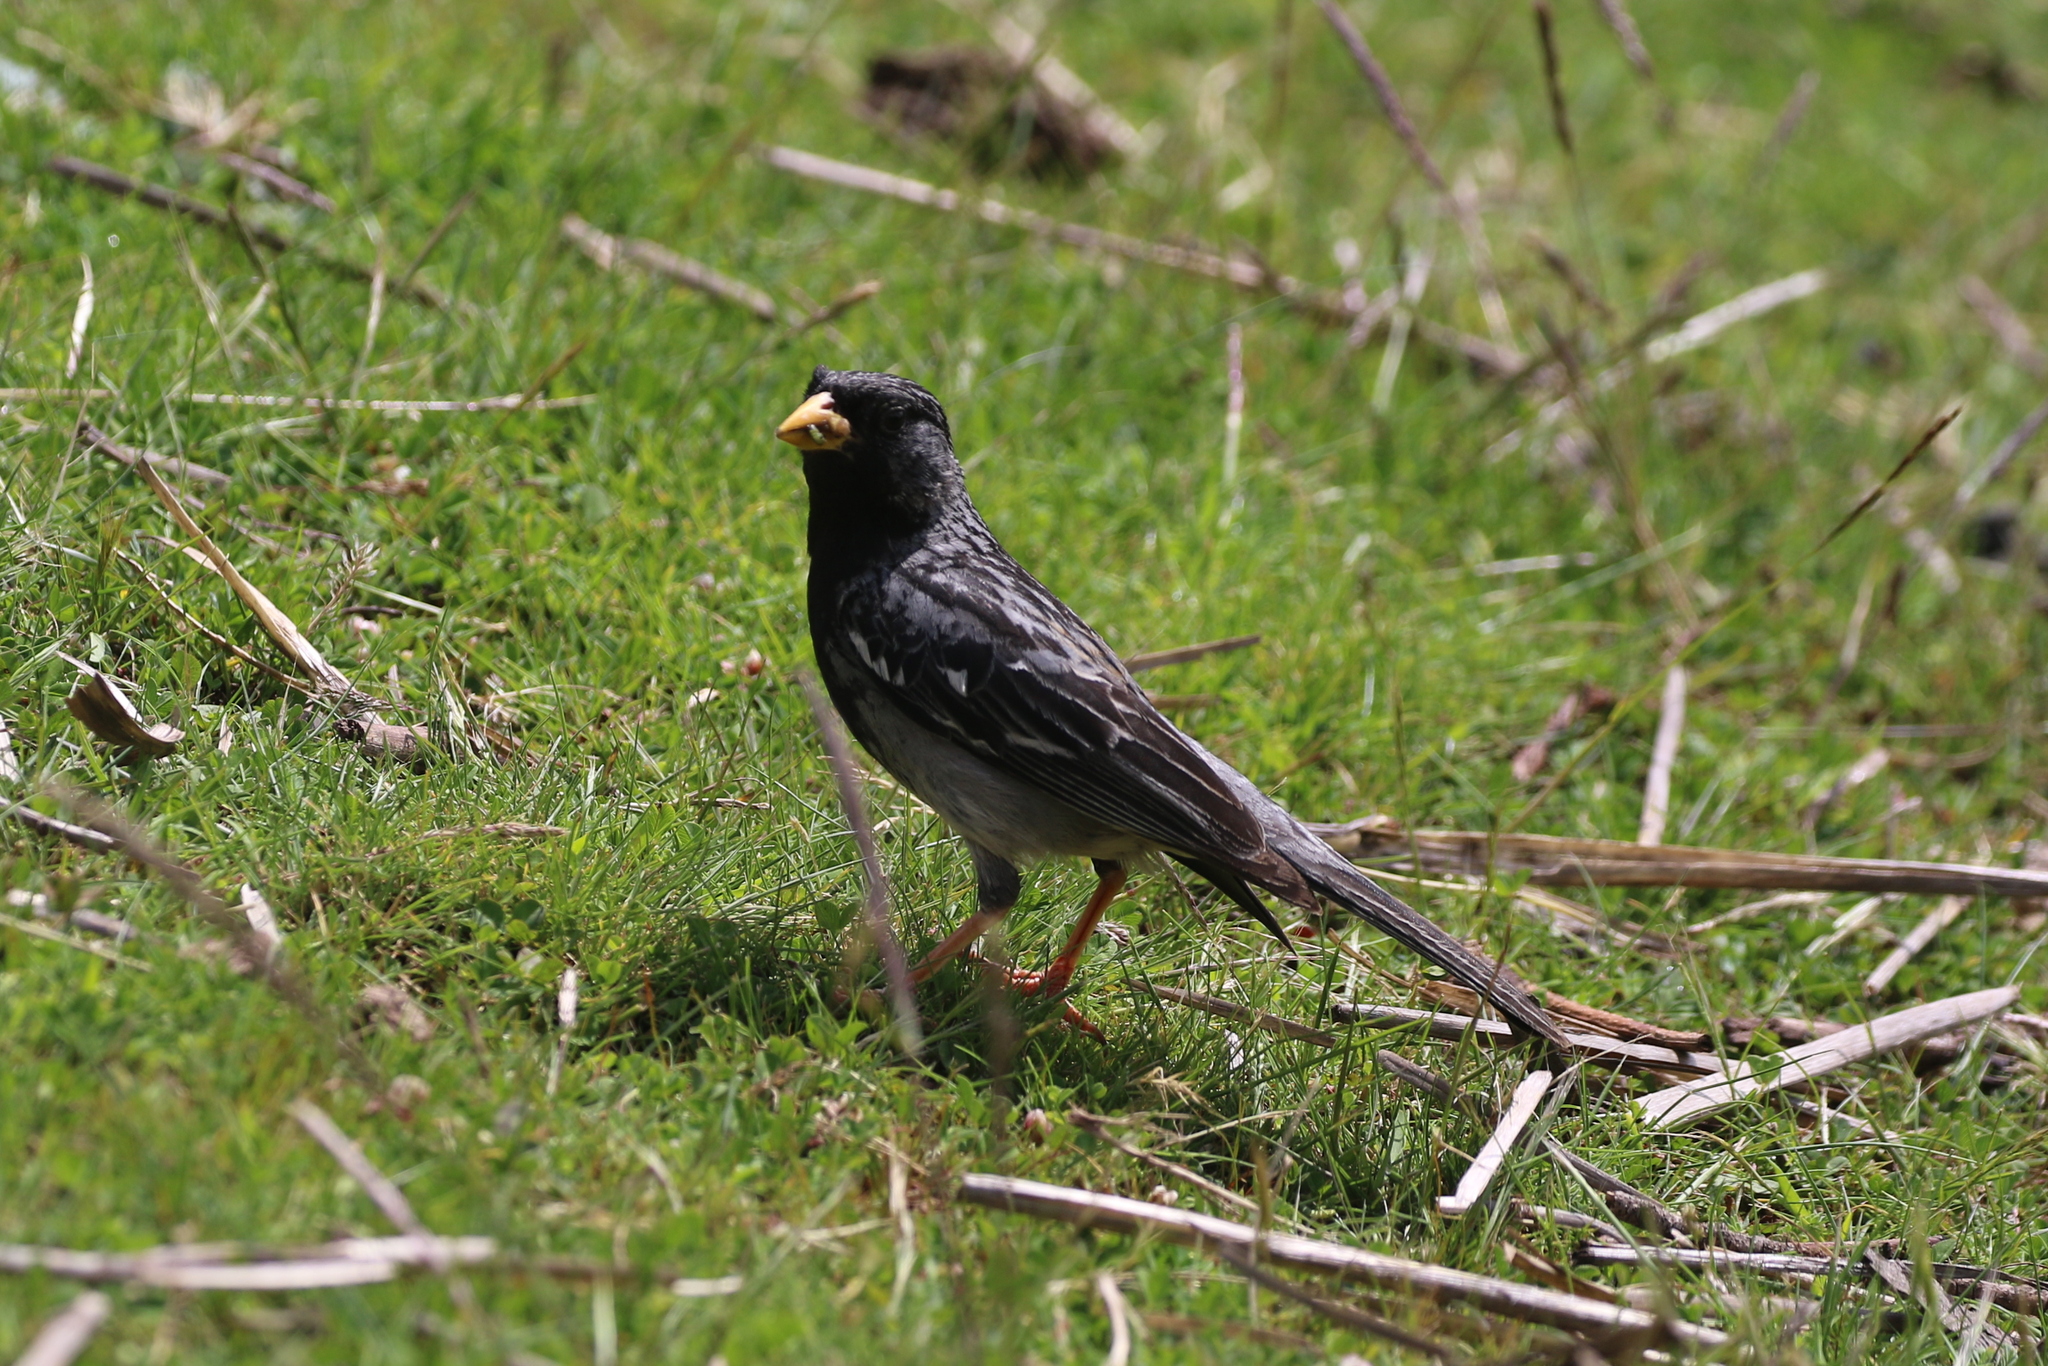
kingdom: Animalia
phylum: Chordata
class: Aves
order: Passeriformes
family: Thraupidae
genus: Rhopospina
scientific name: Rhopospina fruticeti
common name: Mourning sierra finch
